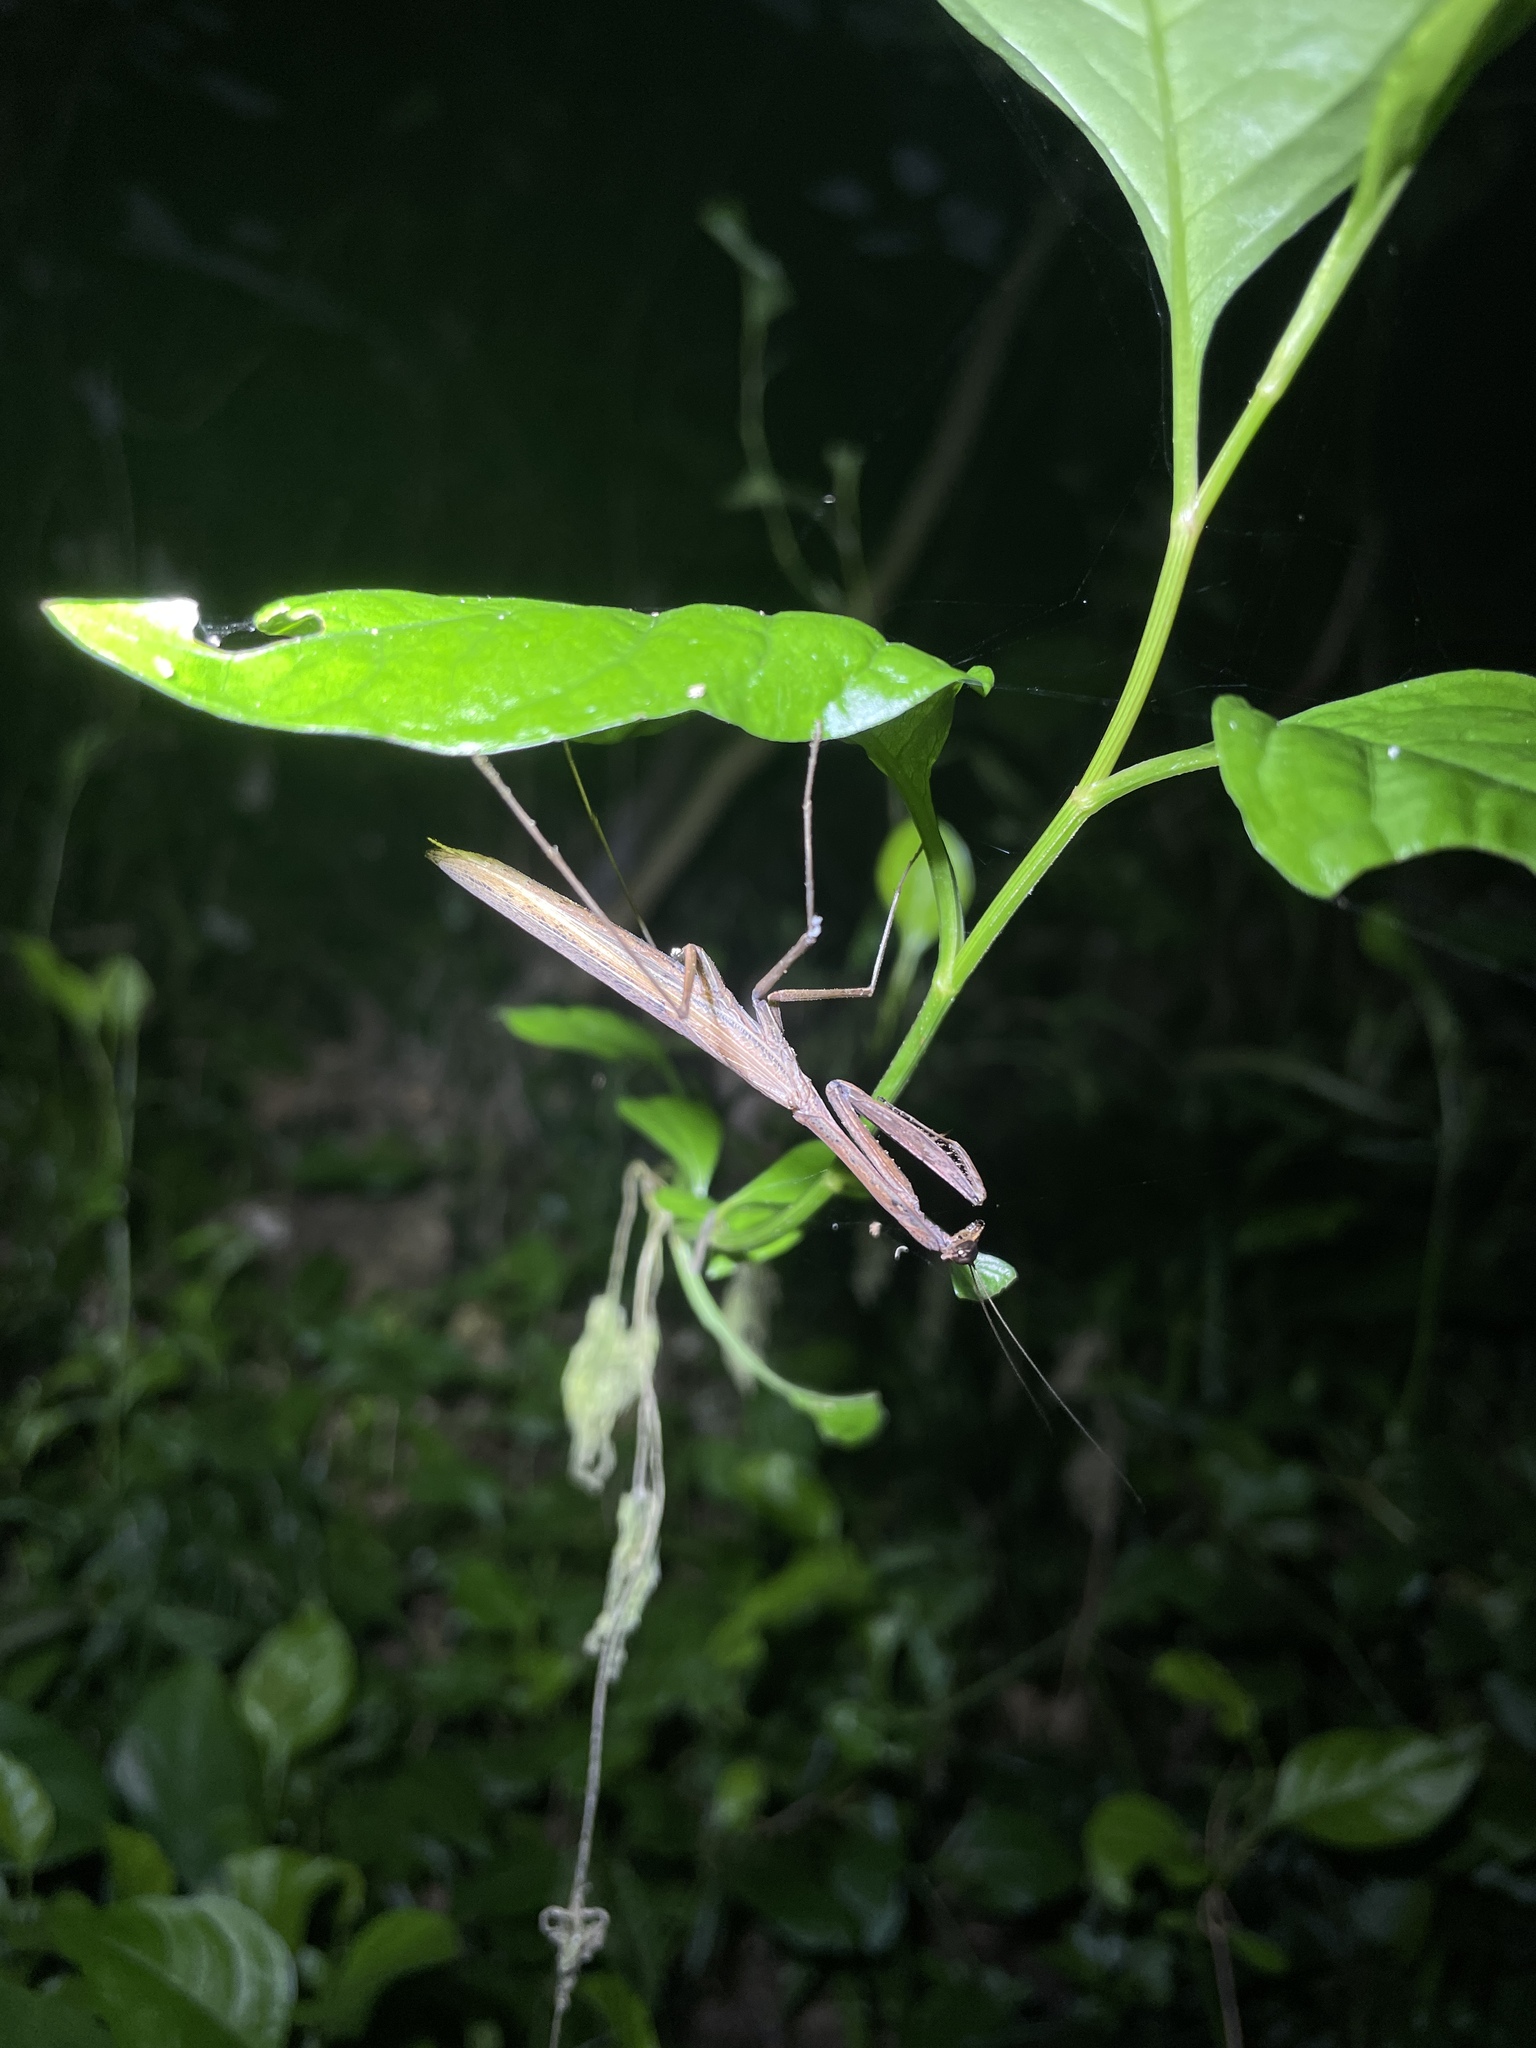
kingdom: Animalia
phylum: Arthropoda
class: Insecta
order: Mantodea
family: Mantidae
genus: Statilia
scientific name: Statilia maculata
